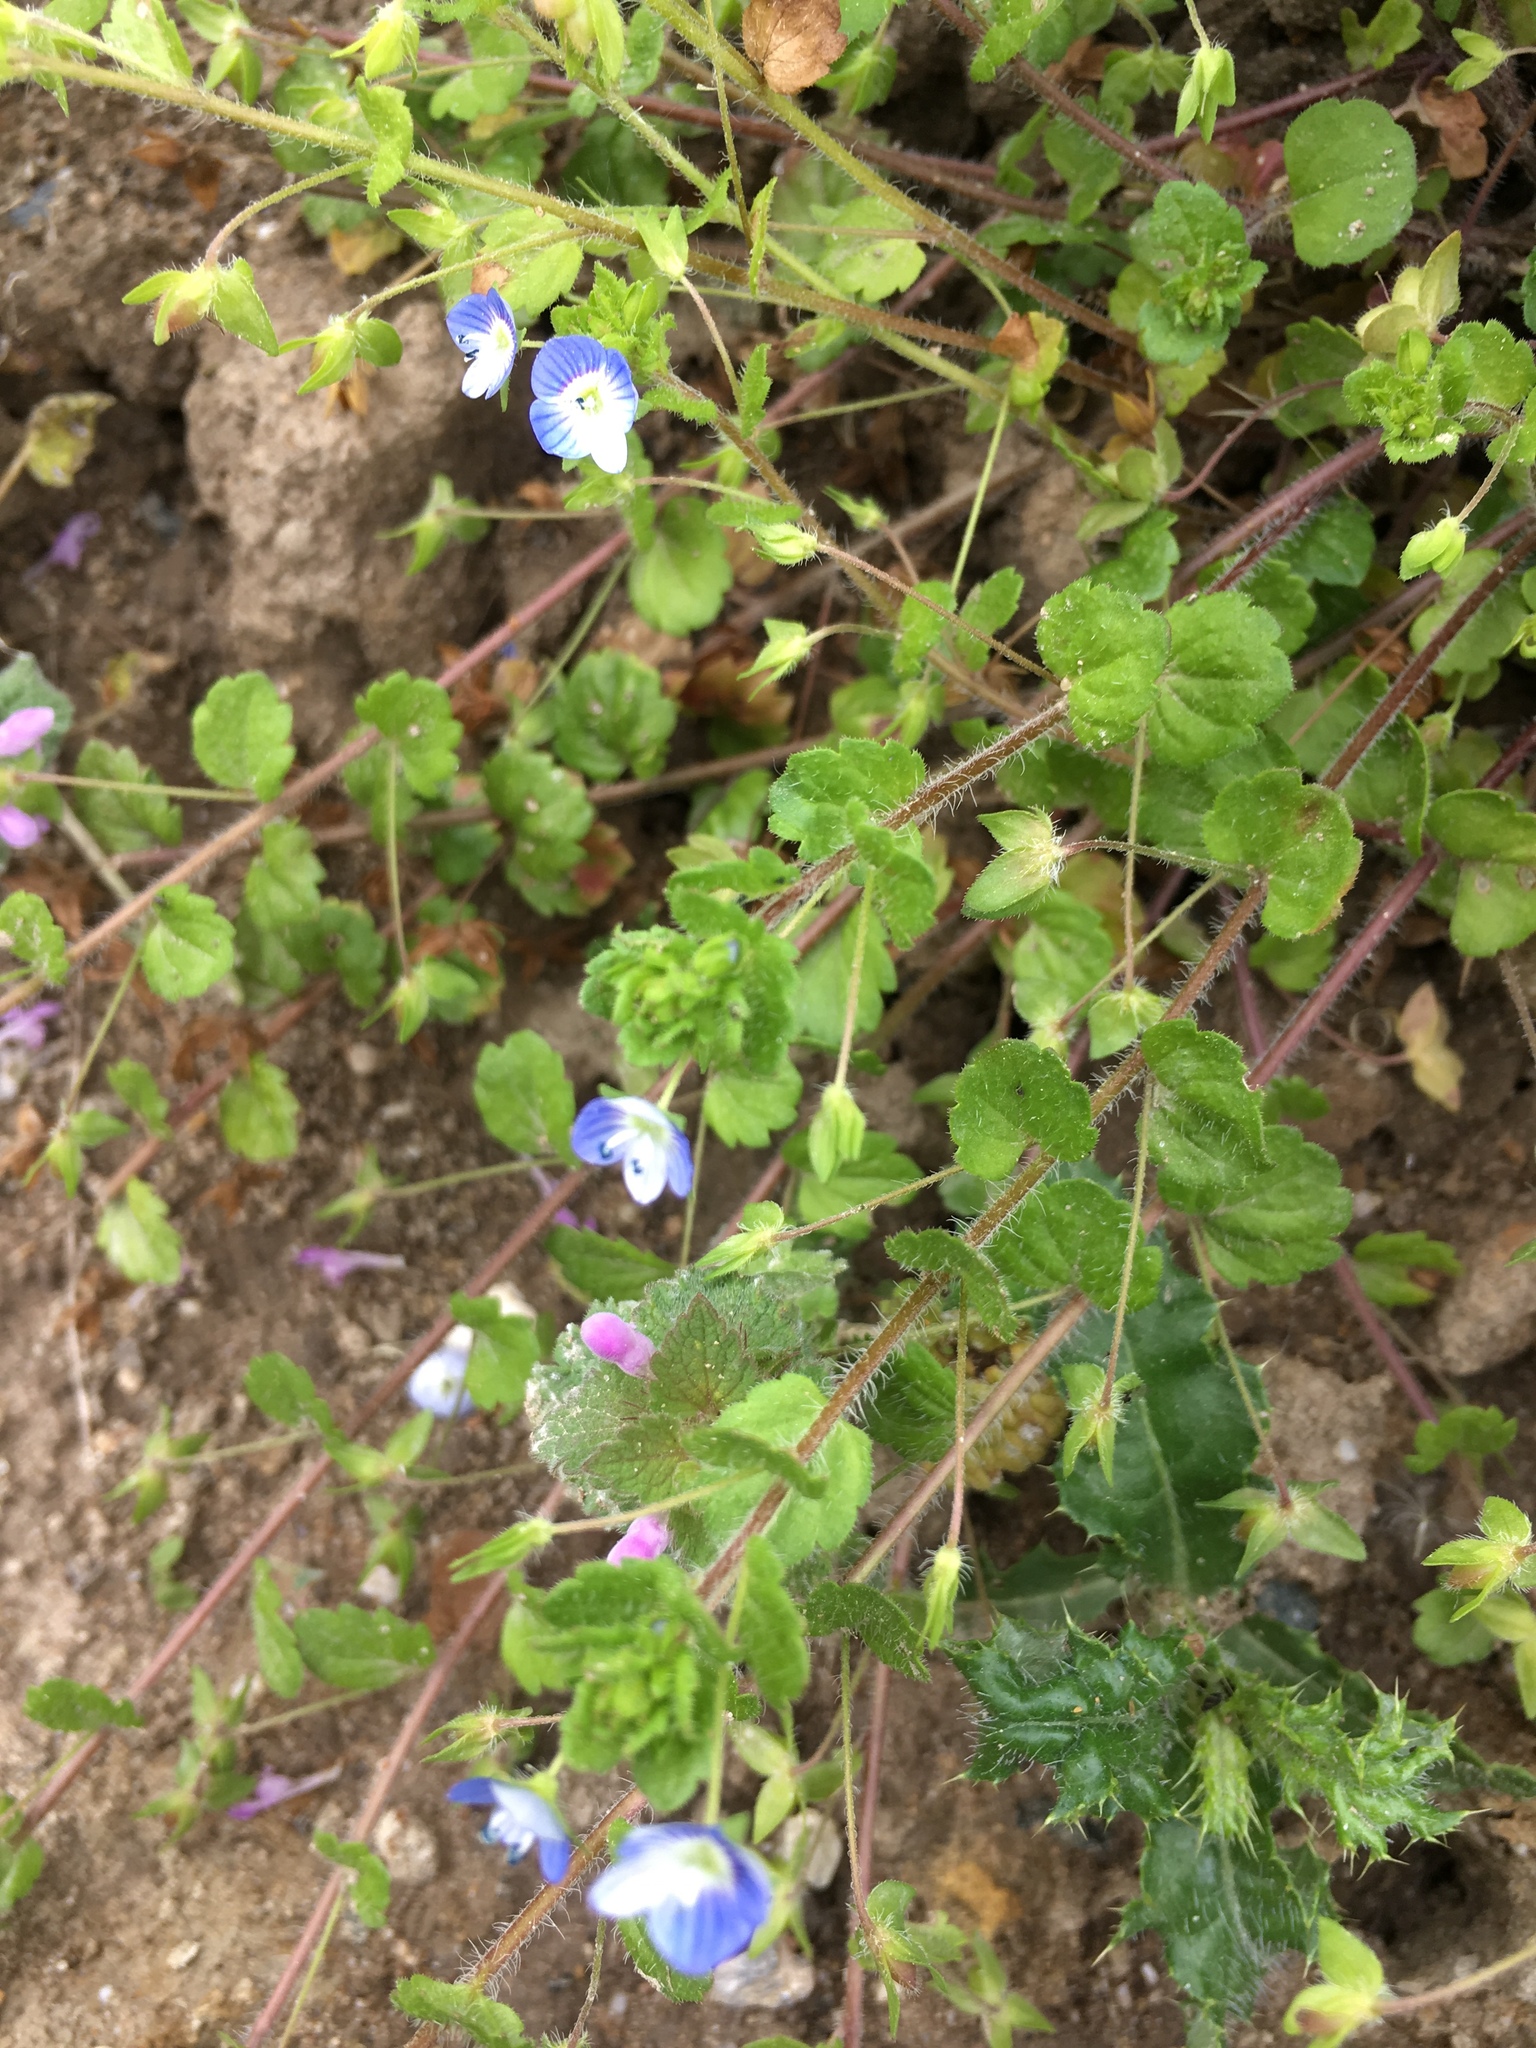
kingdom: Plantae
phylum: Tracheophyta
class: Magnoliopsida
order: Lamiales
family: Plantaginaceae
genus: Veronica
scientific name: Veronica persica
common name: Common field-speedwell
